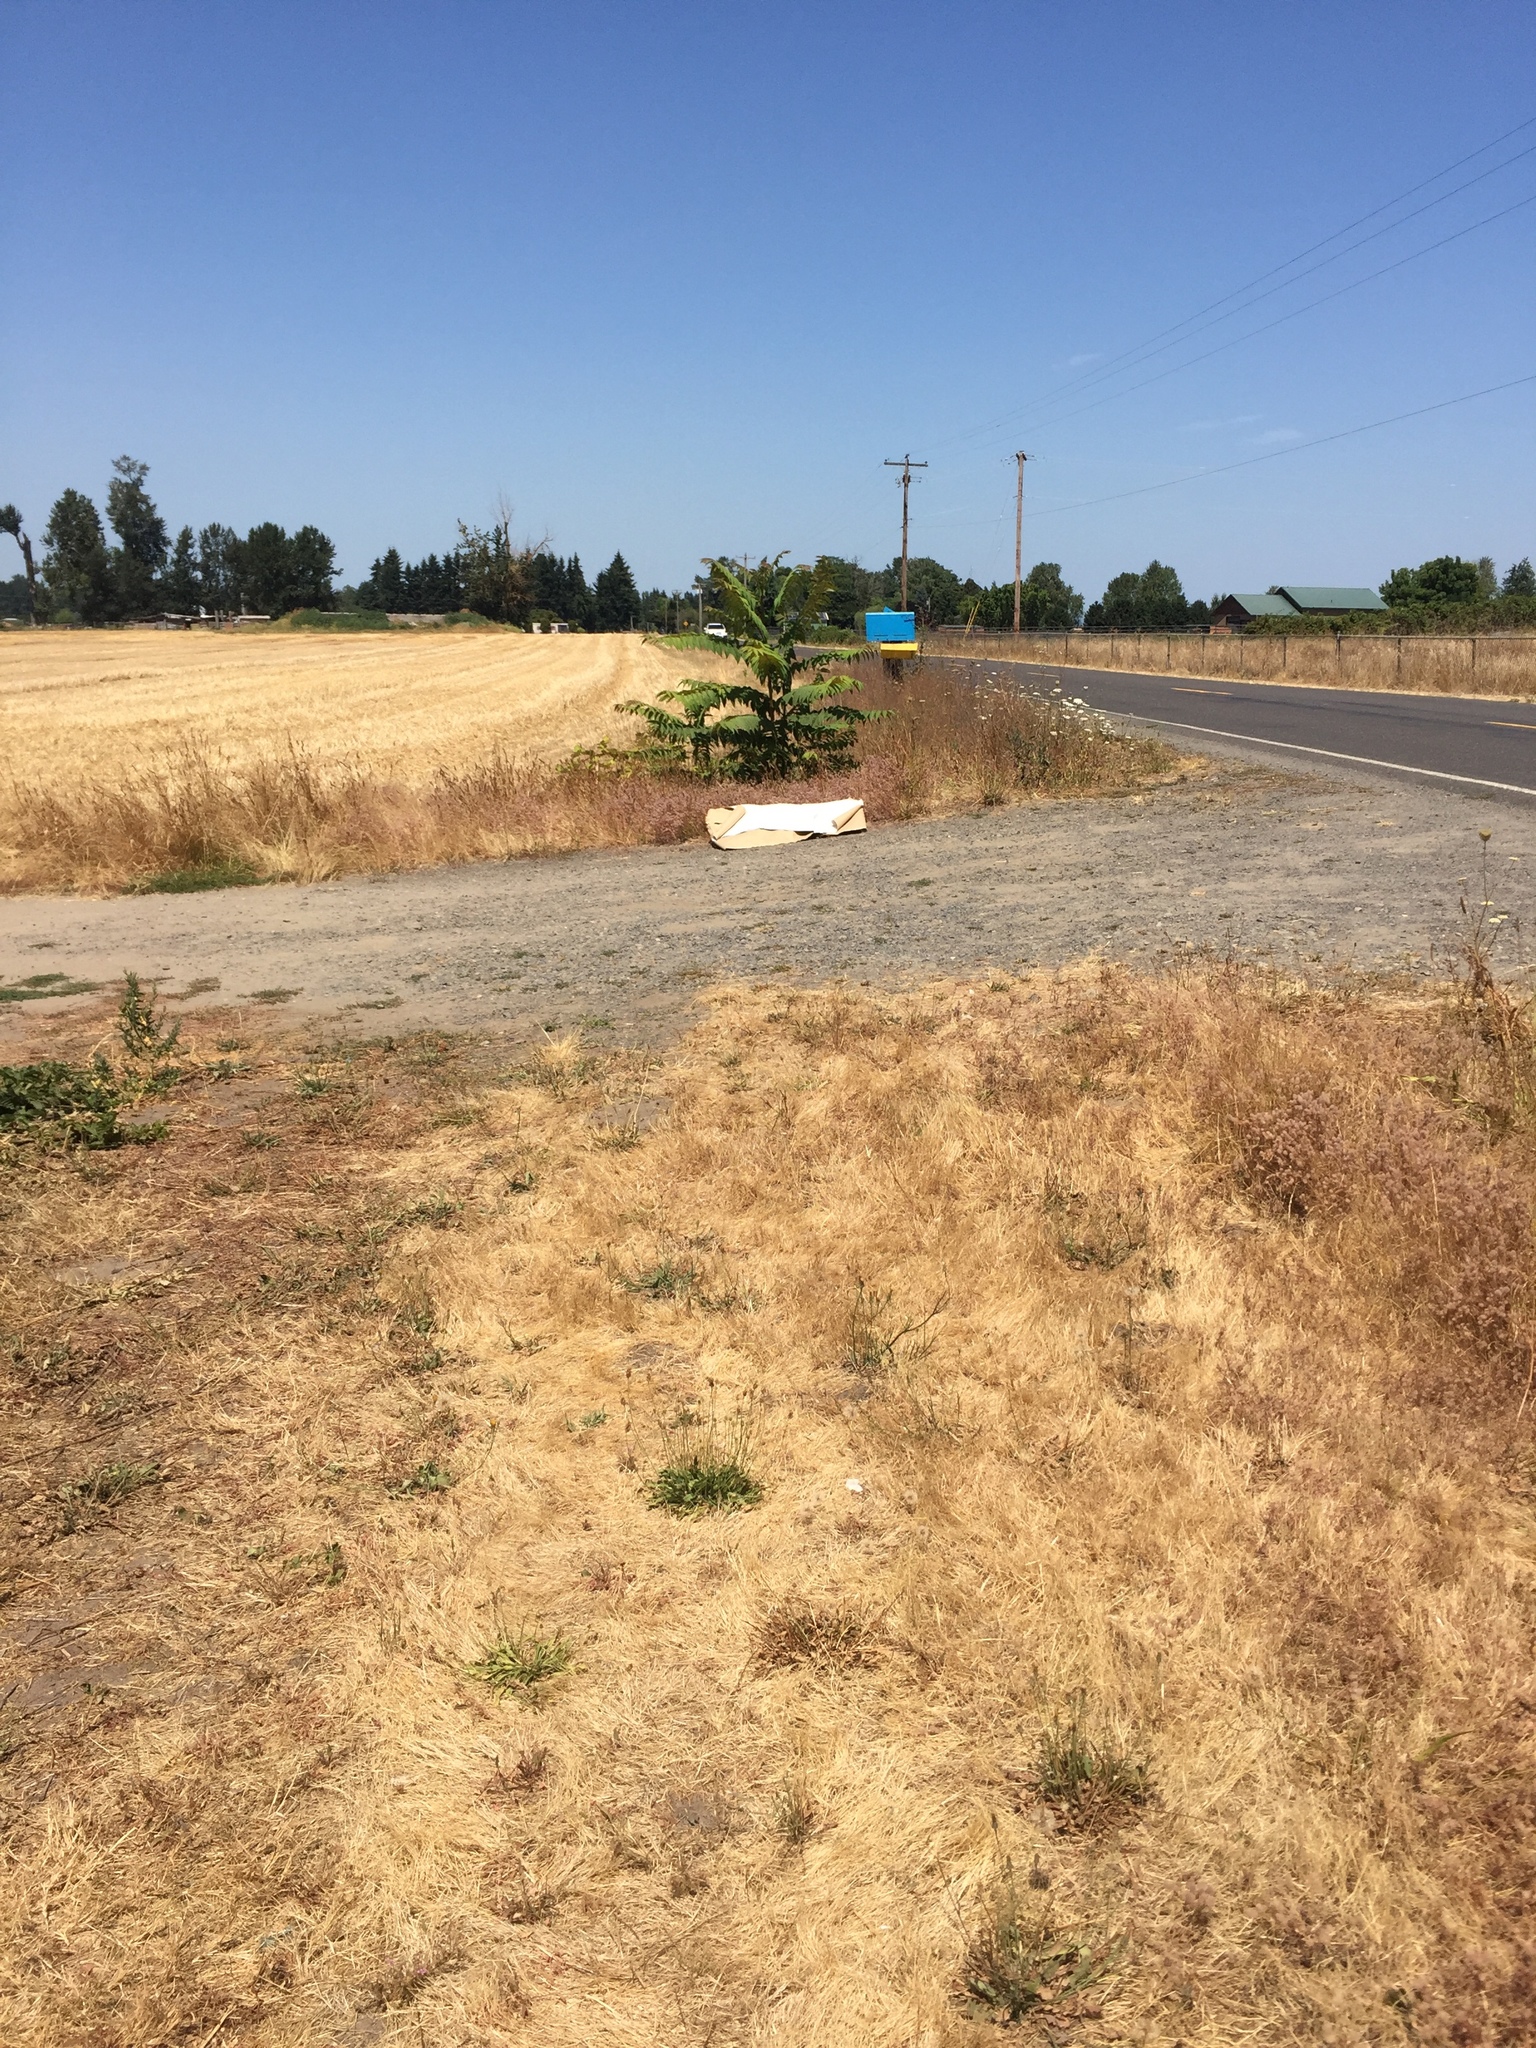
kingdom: Plantae
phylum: Tracheophyta
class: Magnoliopsida
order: Sapindales
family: Simaroubaceae
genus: Ailanthus
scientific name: Ailanthus altissima
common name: Tree-of-heaven
